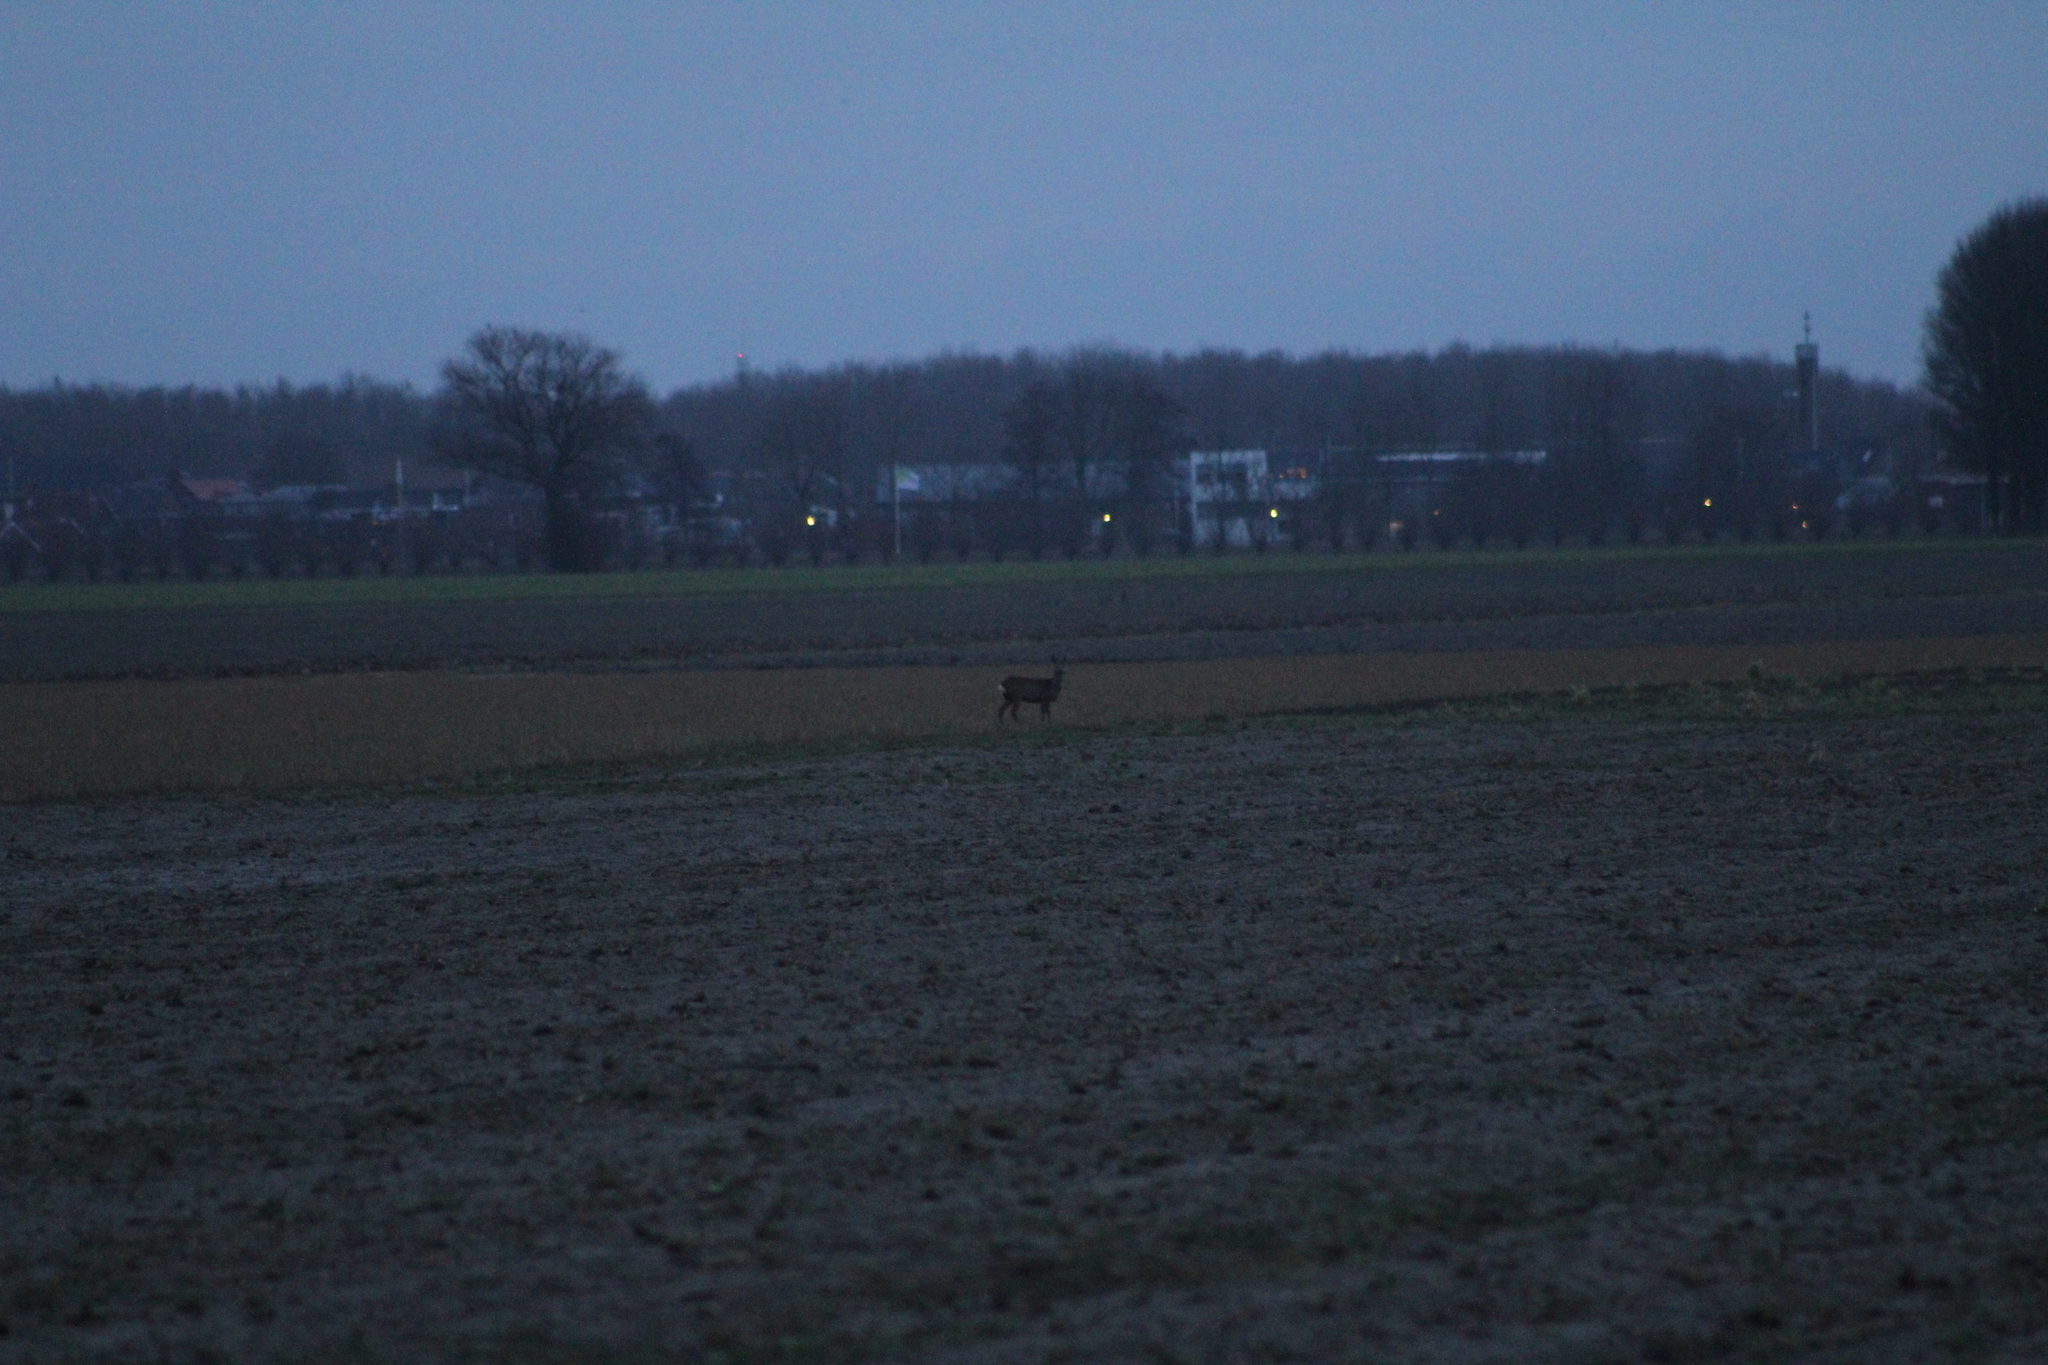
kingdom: Animalia
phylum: Chordata
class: Mammalia
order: Artiodactyla
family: Cervidae
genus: Capreolus
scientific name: Capreolus capreolus
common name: Western roe deer
